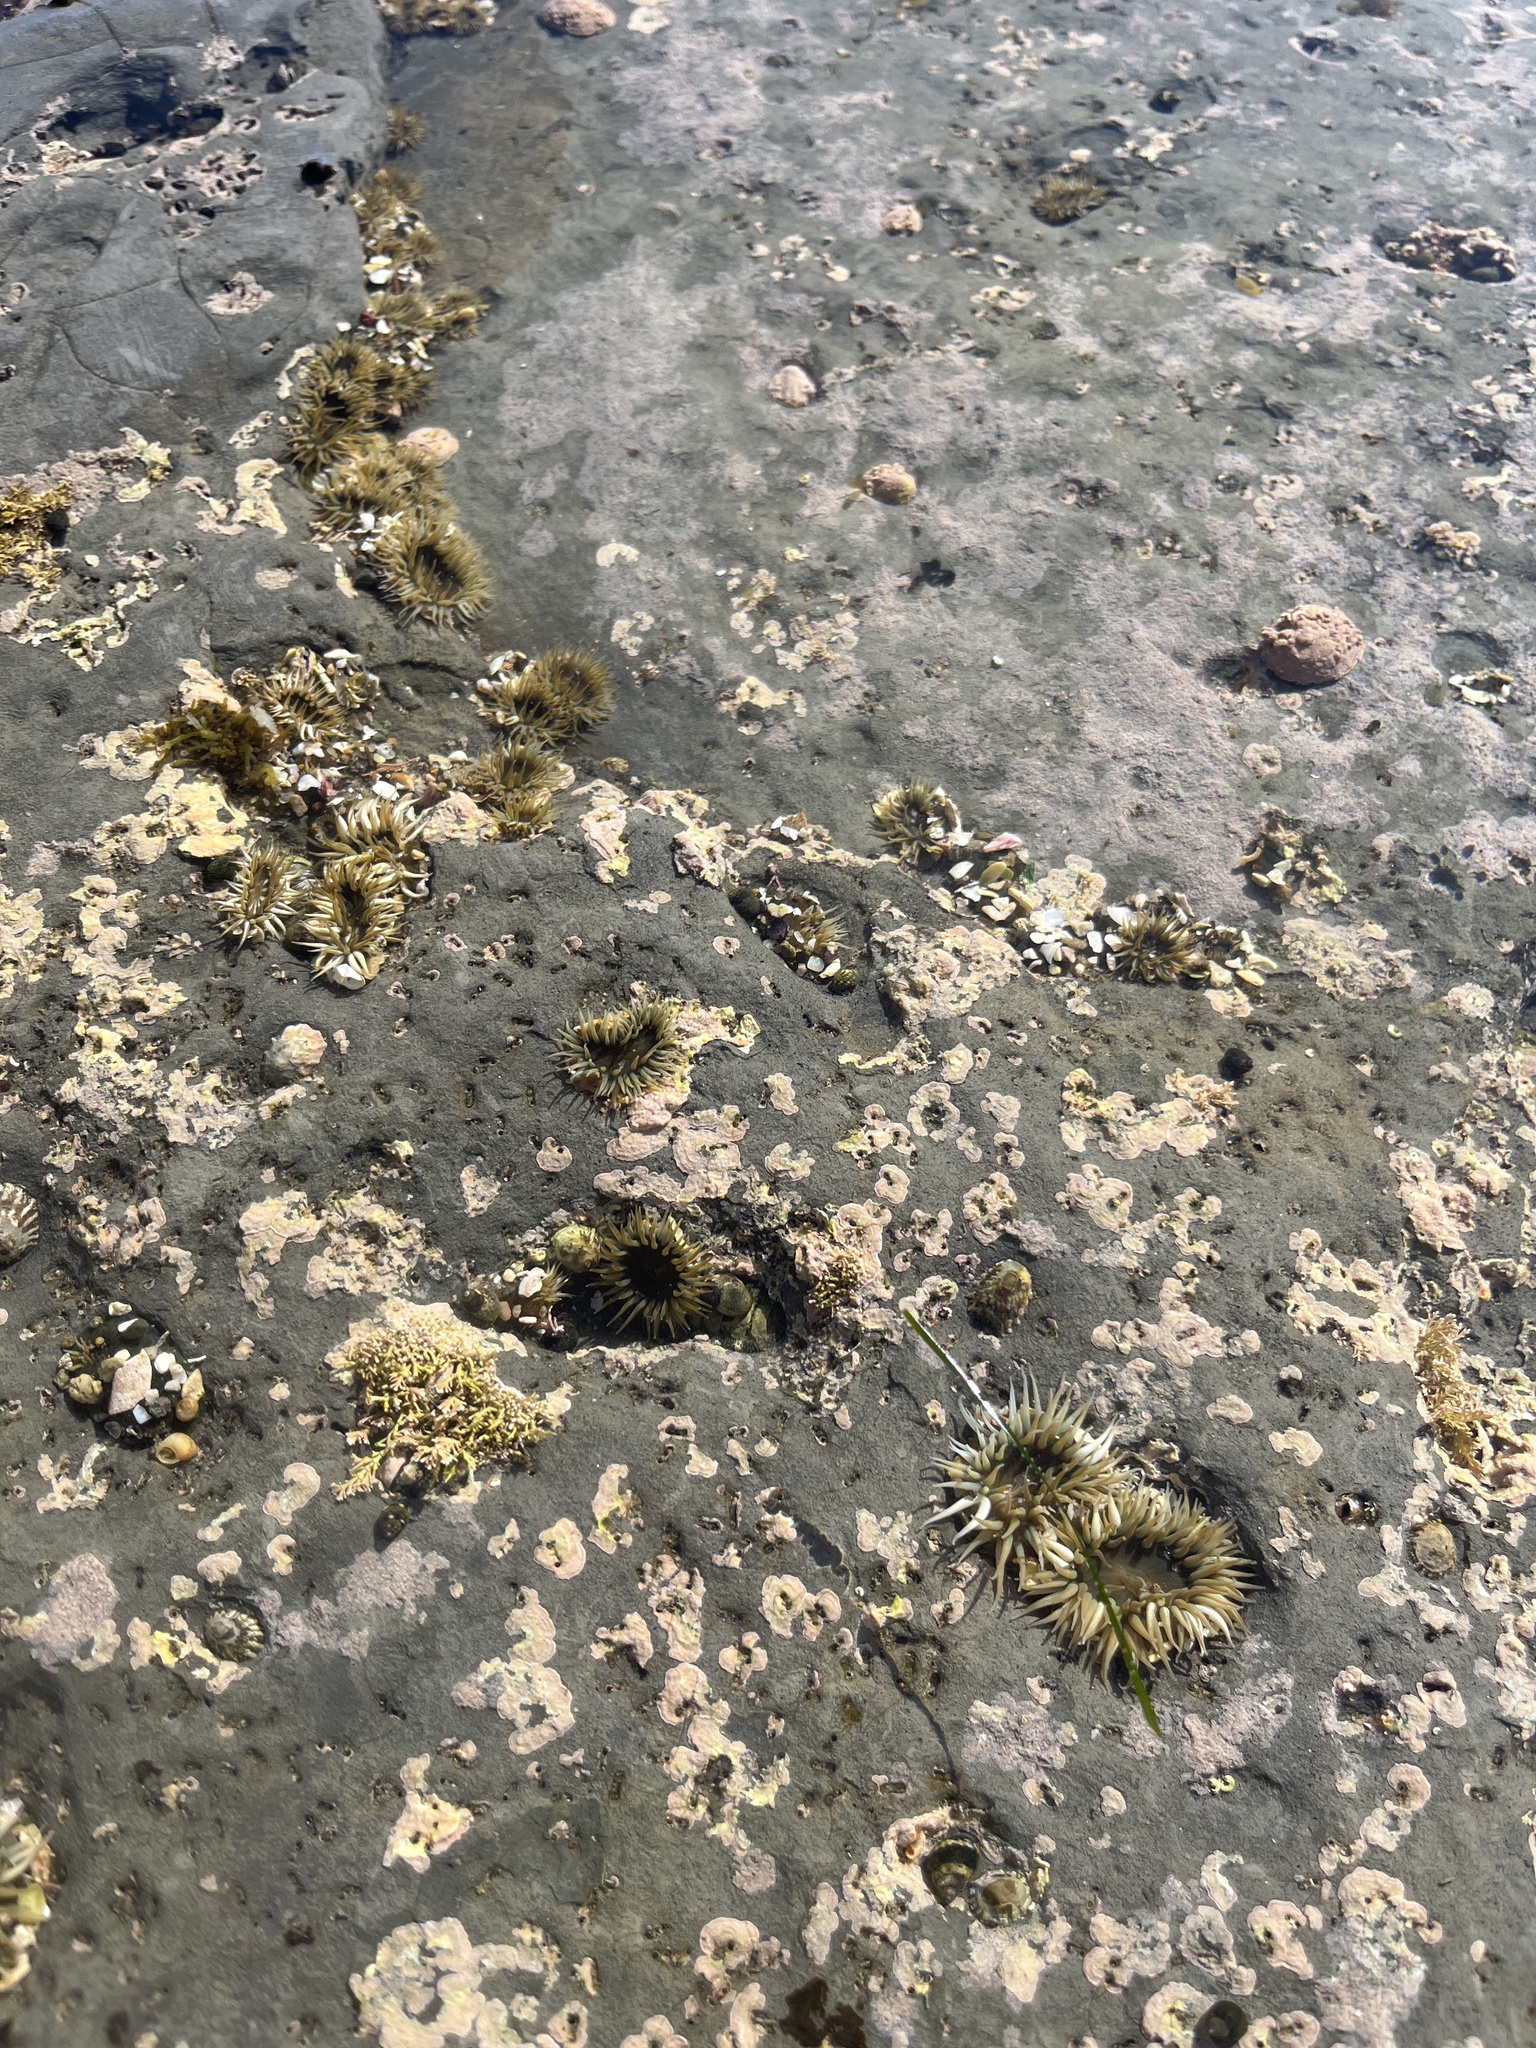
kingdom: Animalia
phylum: Cnidaria
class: Anthozoa
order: Actiniaria
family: Actiniidae
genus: Anthopleura
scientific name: Anthopleura elegantissima
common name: Clonal anemone
